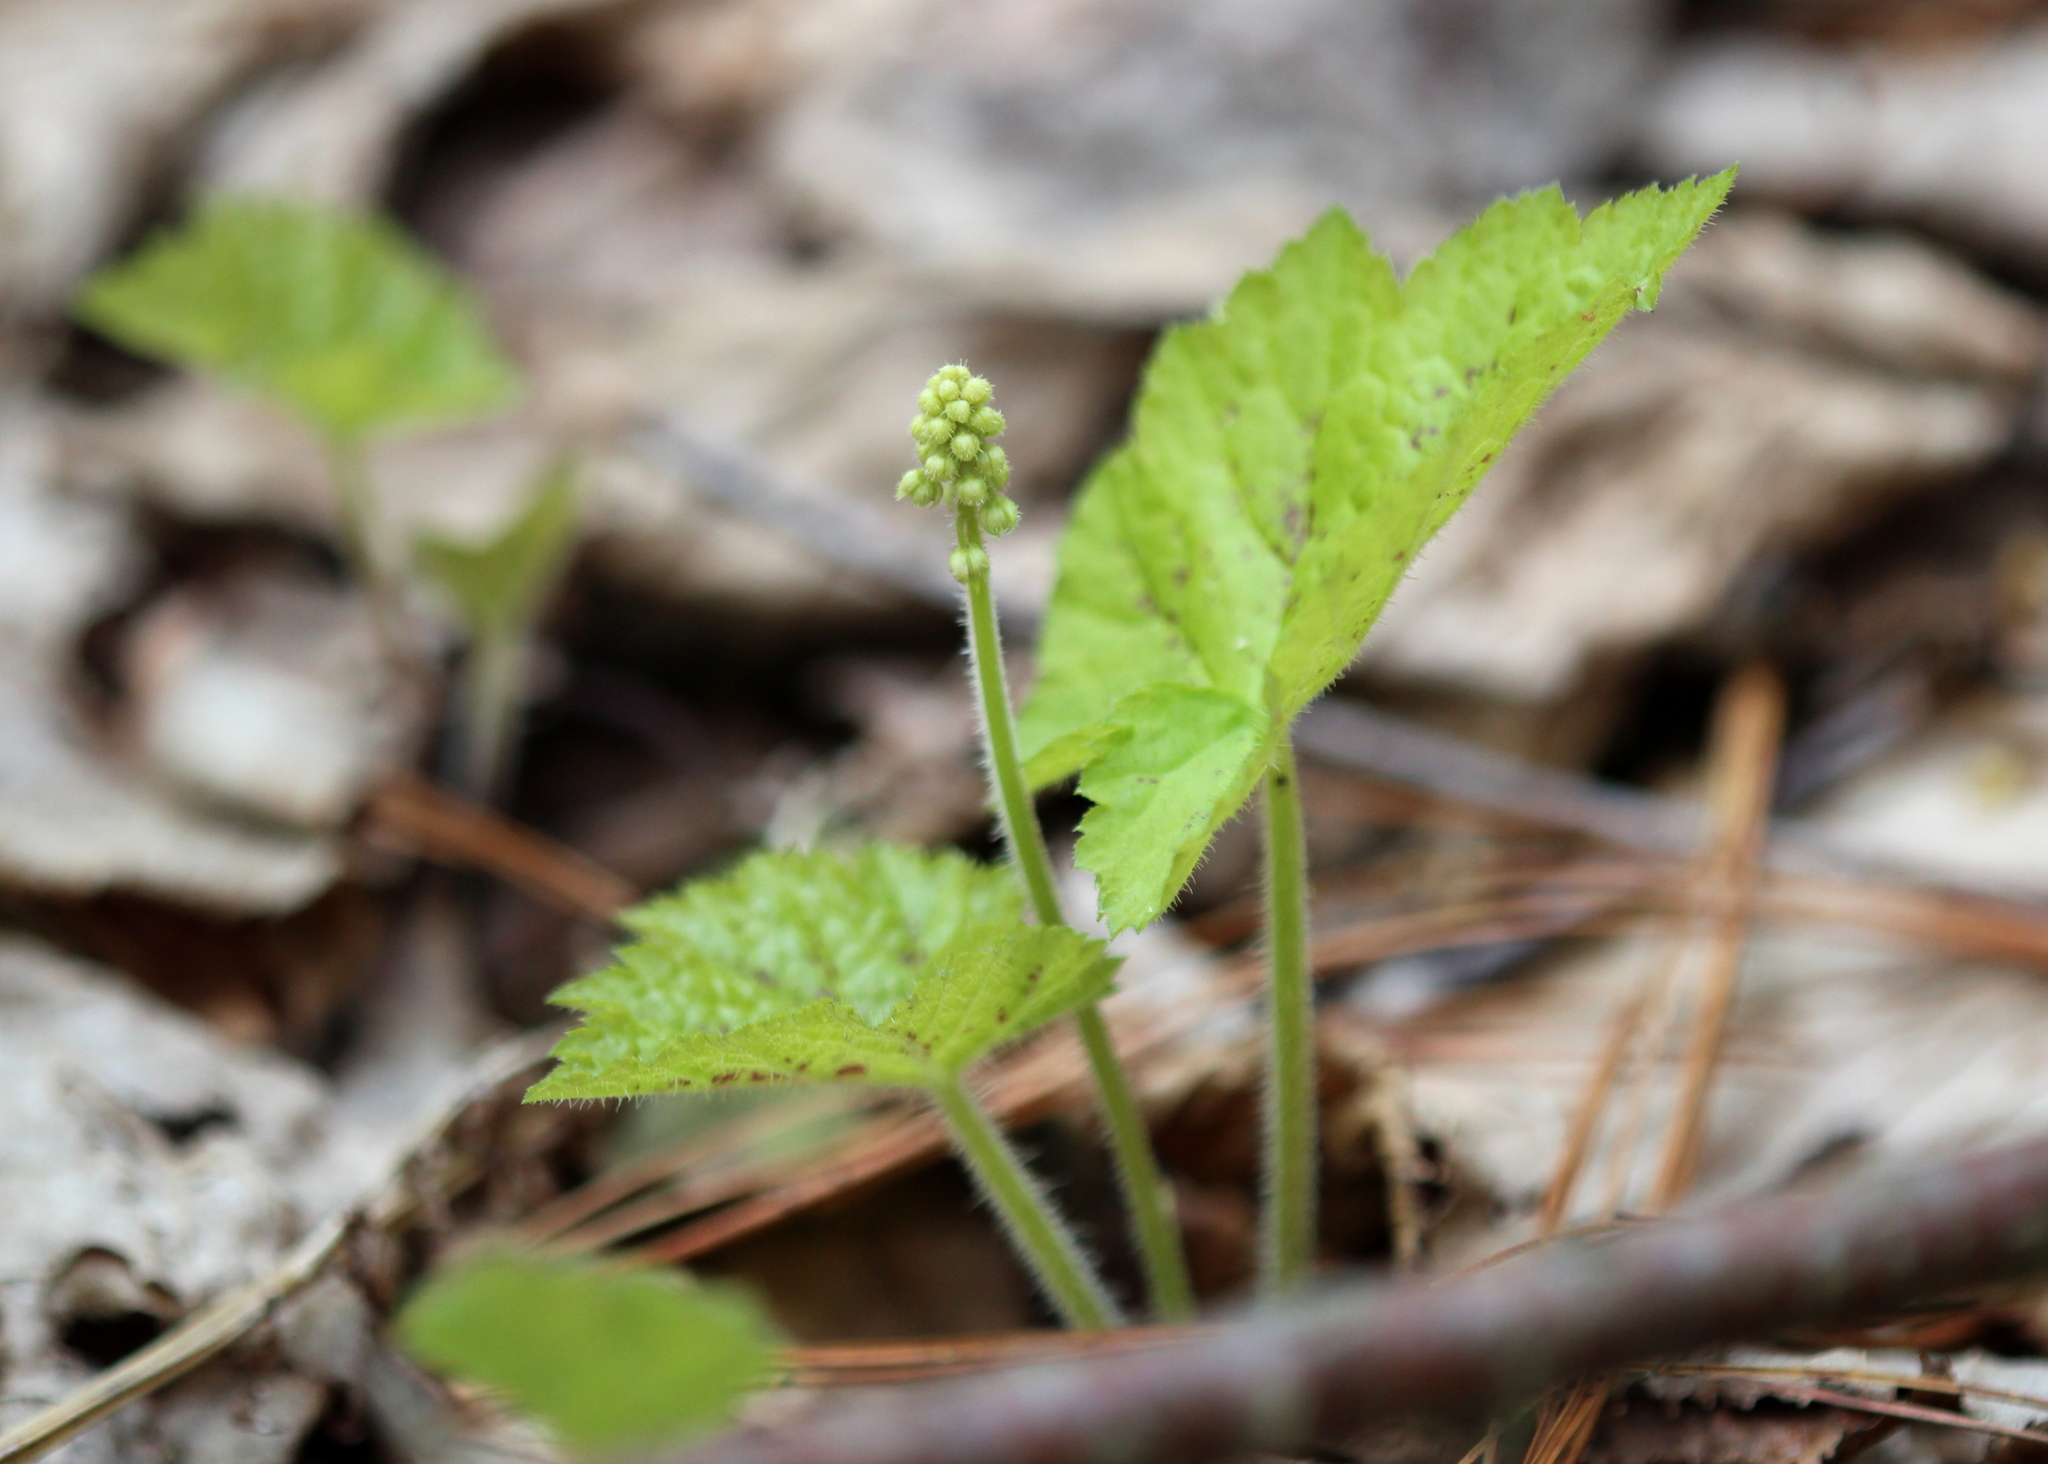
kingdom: Plantae
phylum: Tracheophyta
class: Magnoliopsida
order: Saxifragales
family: Saxifragaceae
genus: Tiarella
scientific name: Tiarella stolonifera
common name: Stoloniferous foamflower
